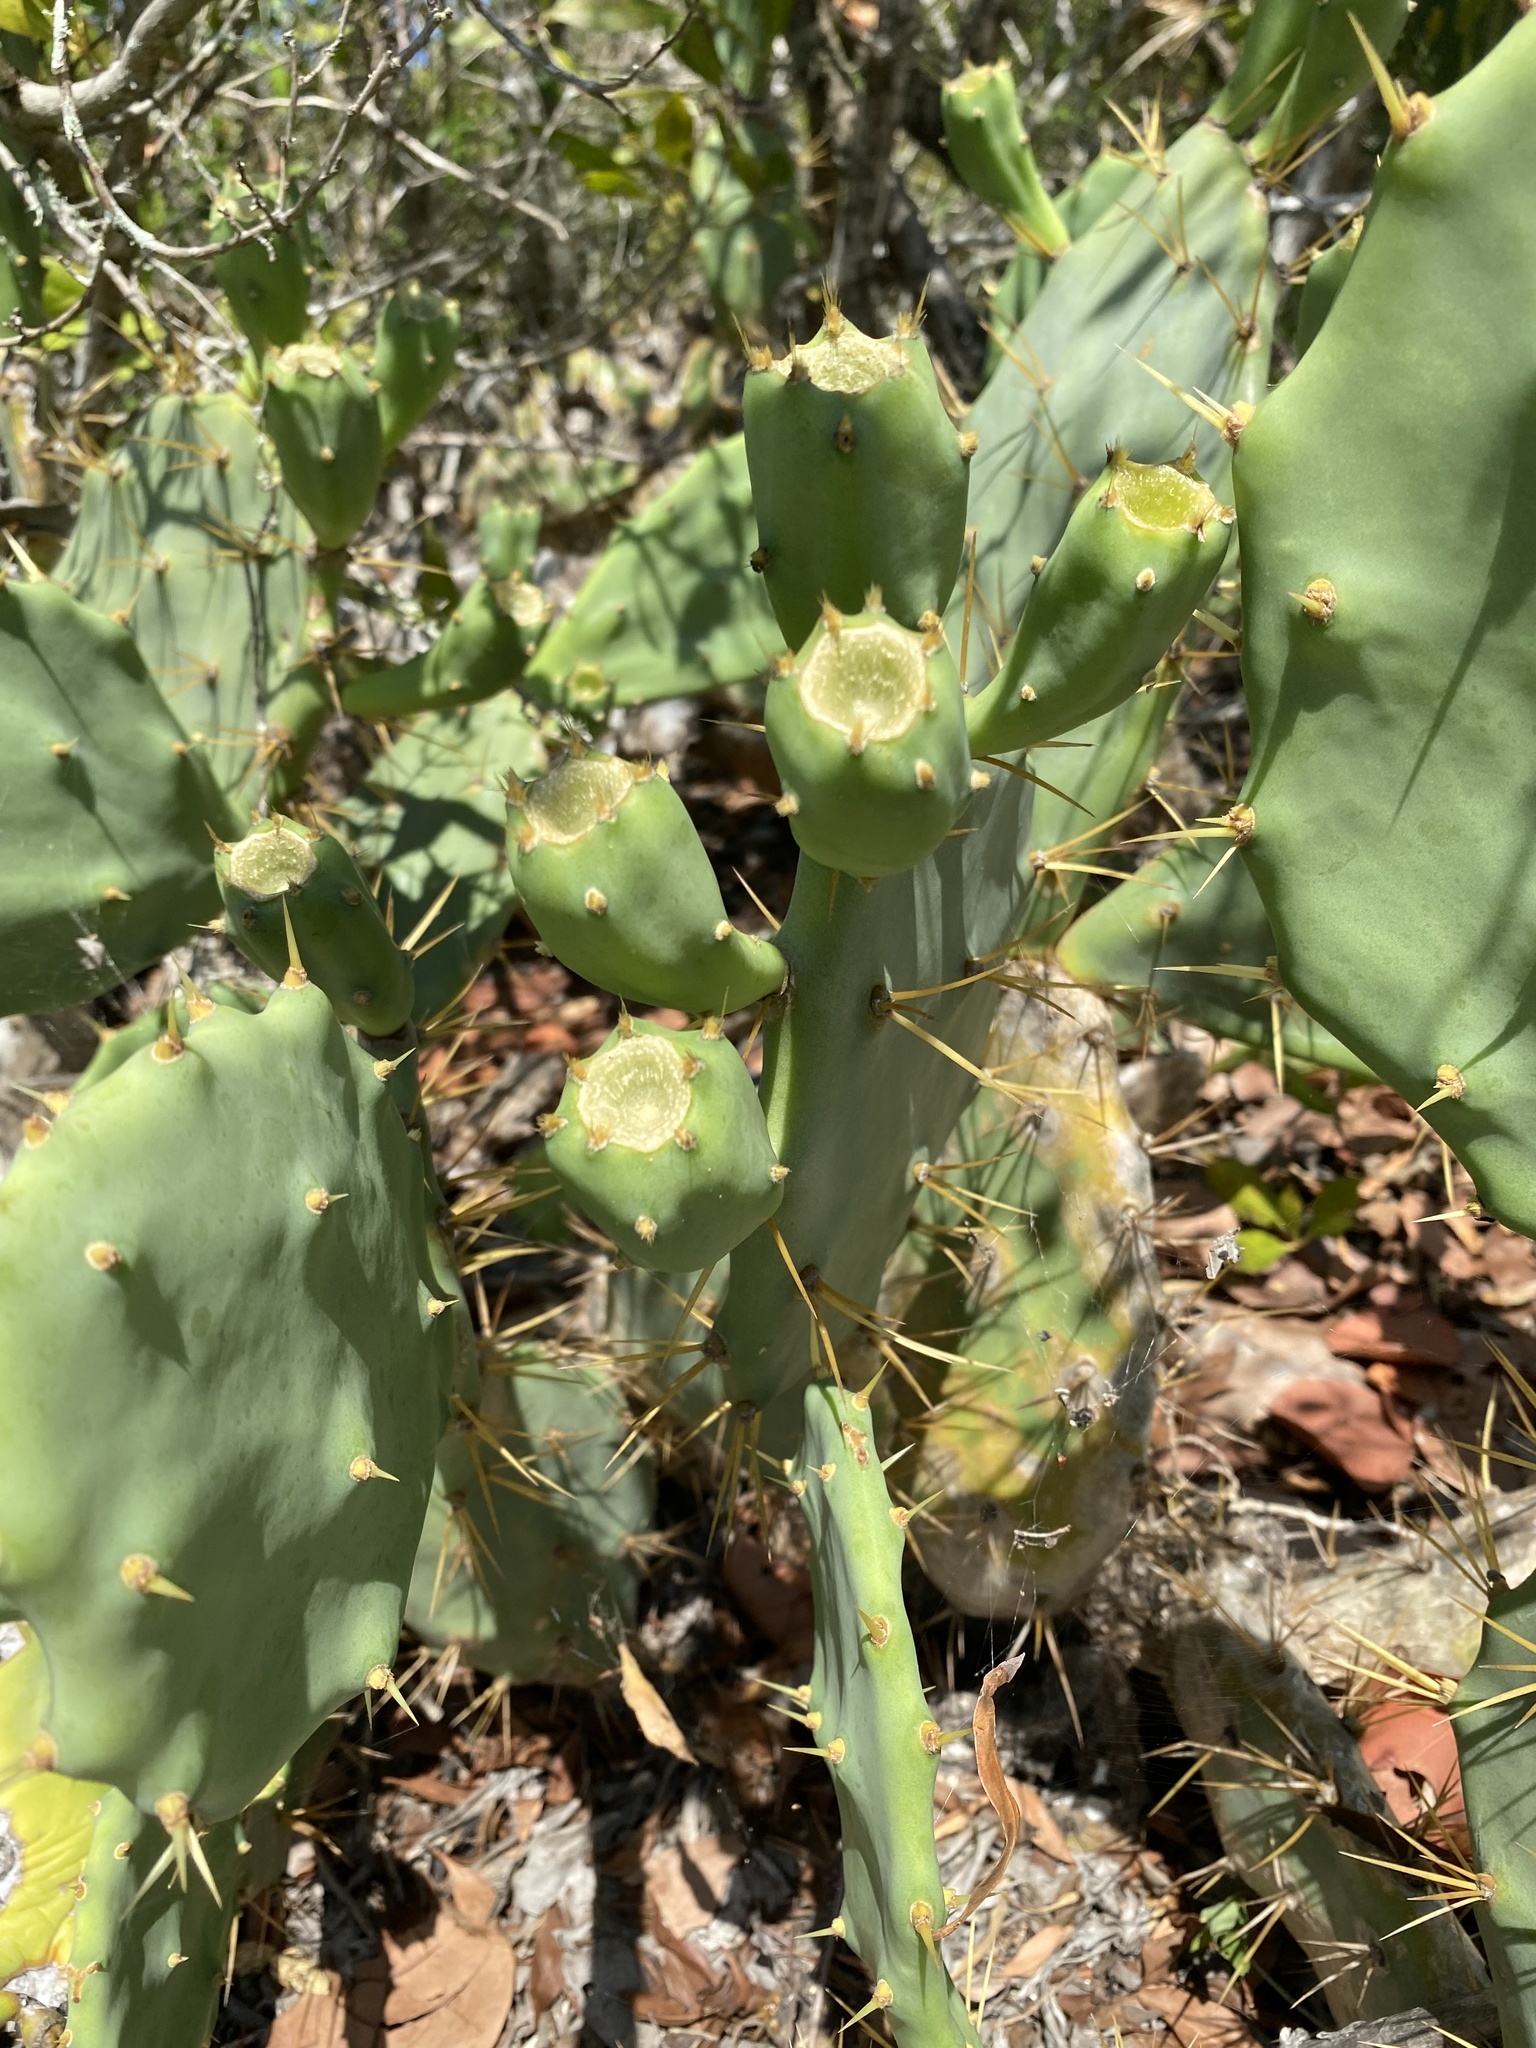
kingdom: Plantae
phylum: Tracheophyta
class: Magnoliopsida
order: Caryophyllales
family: Cactaceae
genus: Opuntia
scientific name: Opuntia stricta
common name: Erect pricklypear
